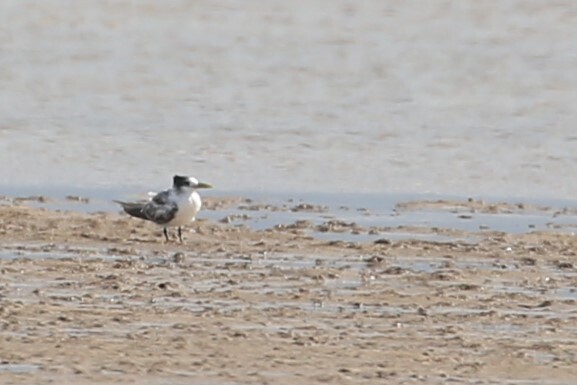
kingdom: Animalia
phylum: Chordata
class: Aves
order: Charadriiformes
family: Laridae
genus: Thalasseus
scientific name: Thalasseus bergii
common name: Greater crested tern
